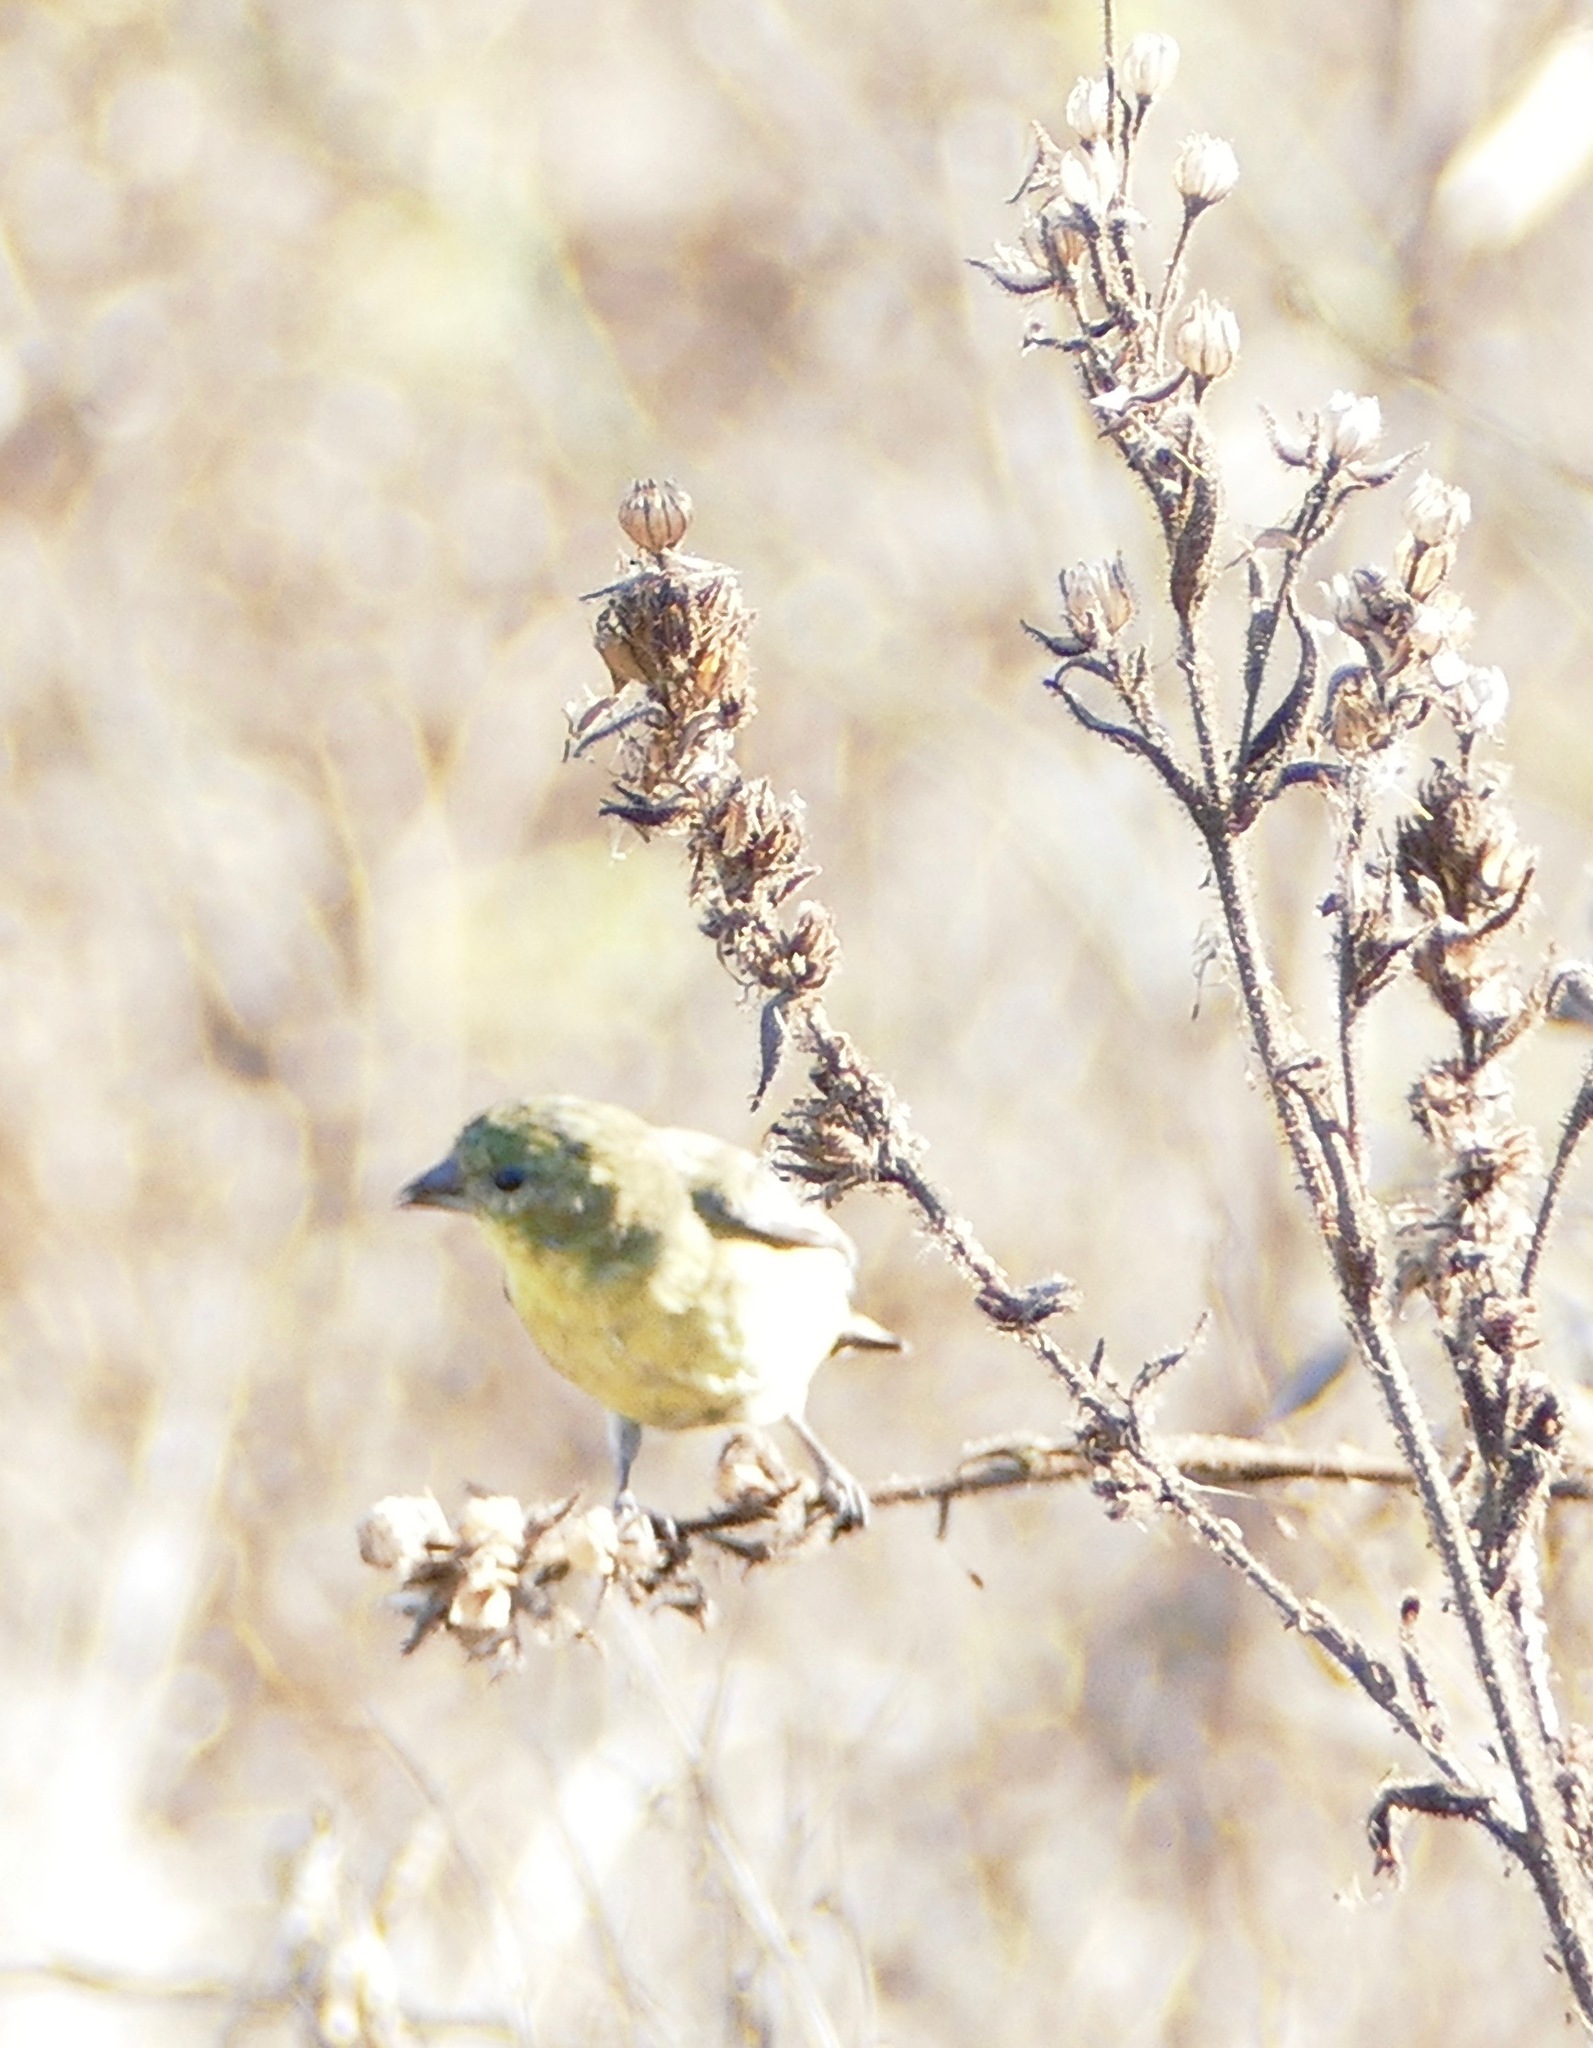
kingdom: Animalia
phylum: Chordata
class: Aves
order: Passeriformes
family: Fringillidae
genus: Spinus
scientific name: Spinus psaltria
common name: Lesser goldfinch
